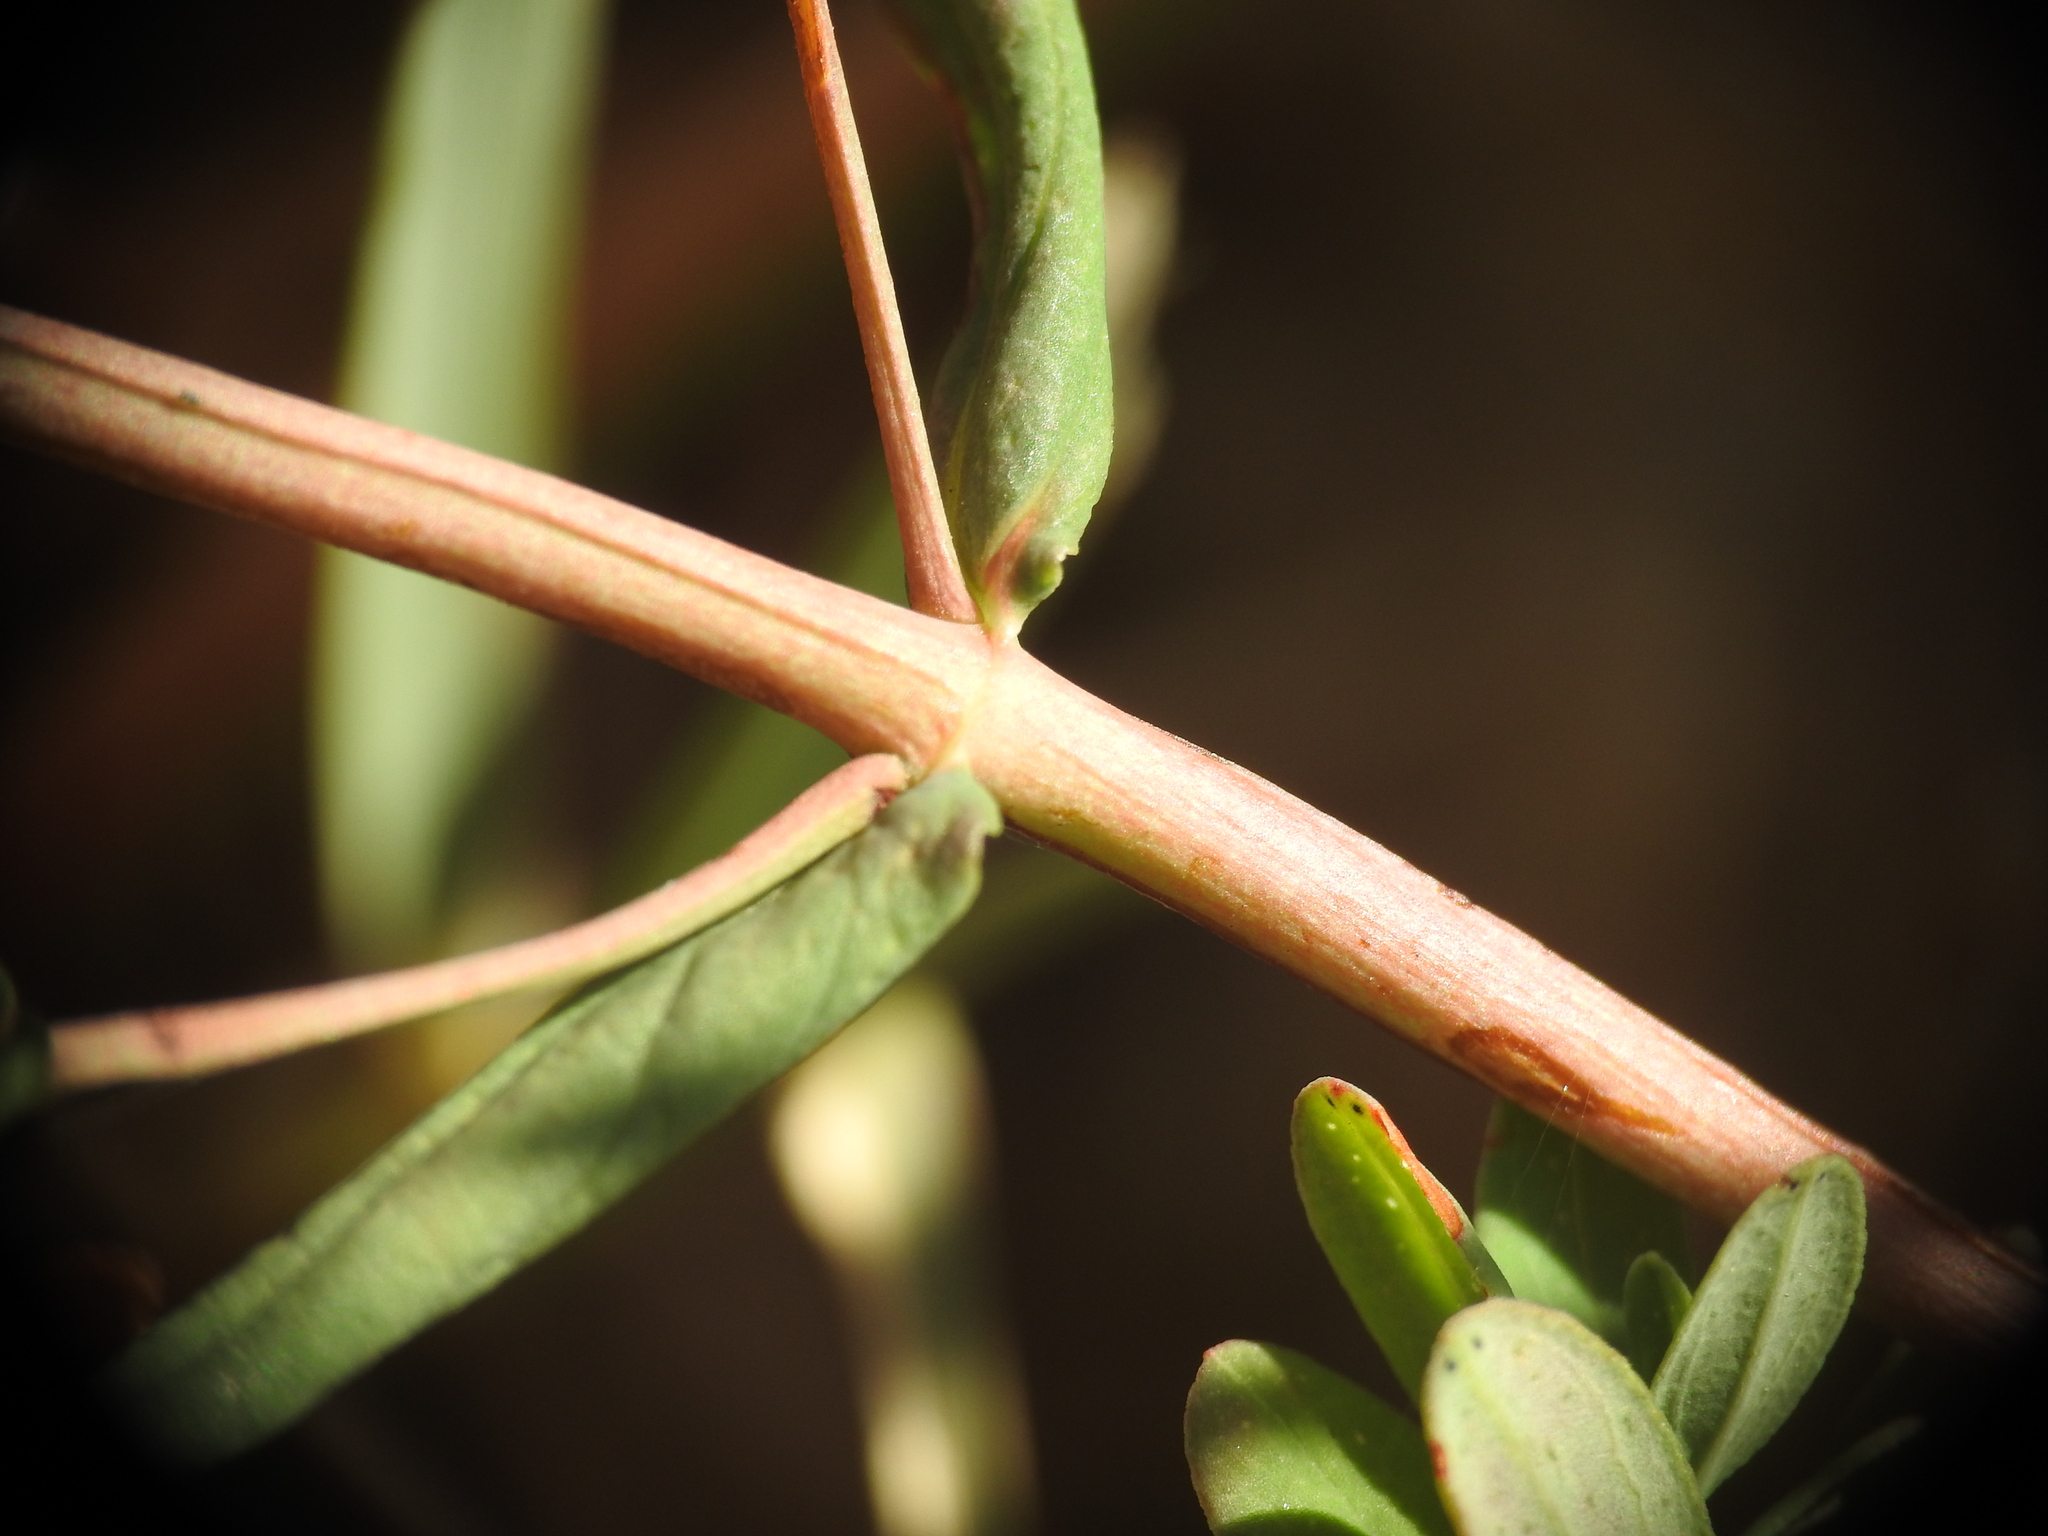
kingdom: Plantae
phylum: Tracheophyta
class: Magnoliopsida
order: Malpighiales
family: Hypericaceae
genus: Hypericum
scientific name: Hypericum perforatum
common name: Common st. johnswort
